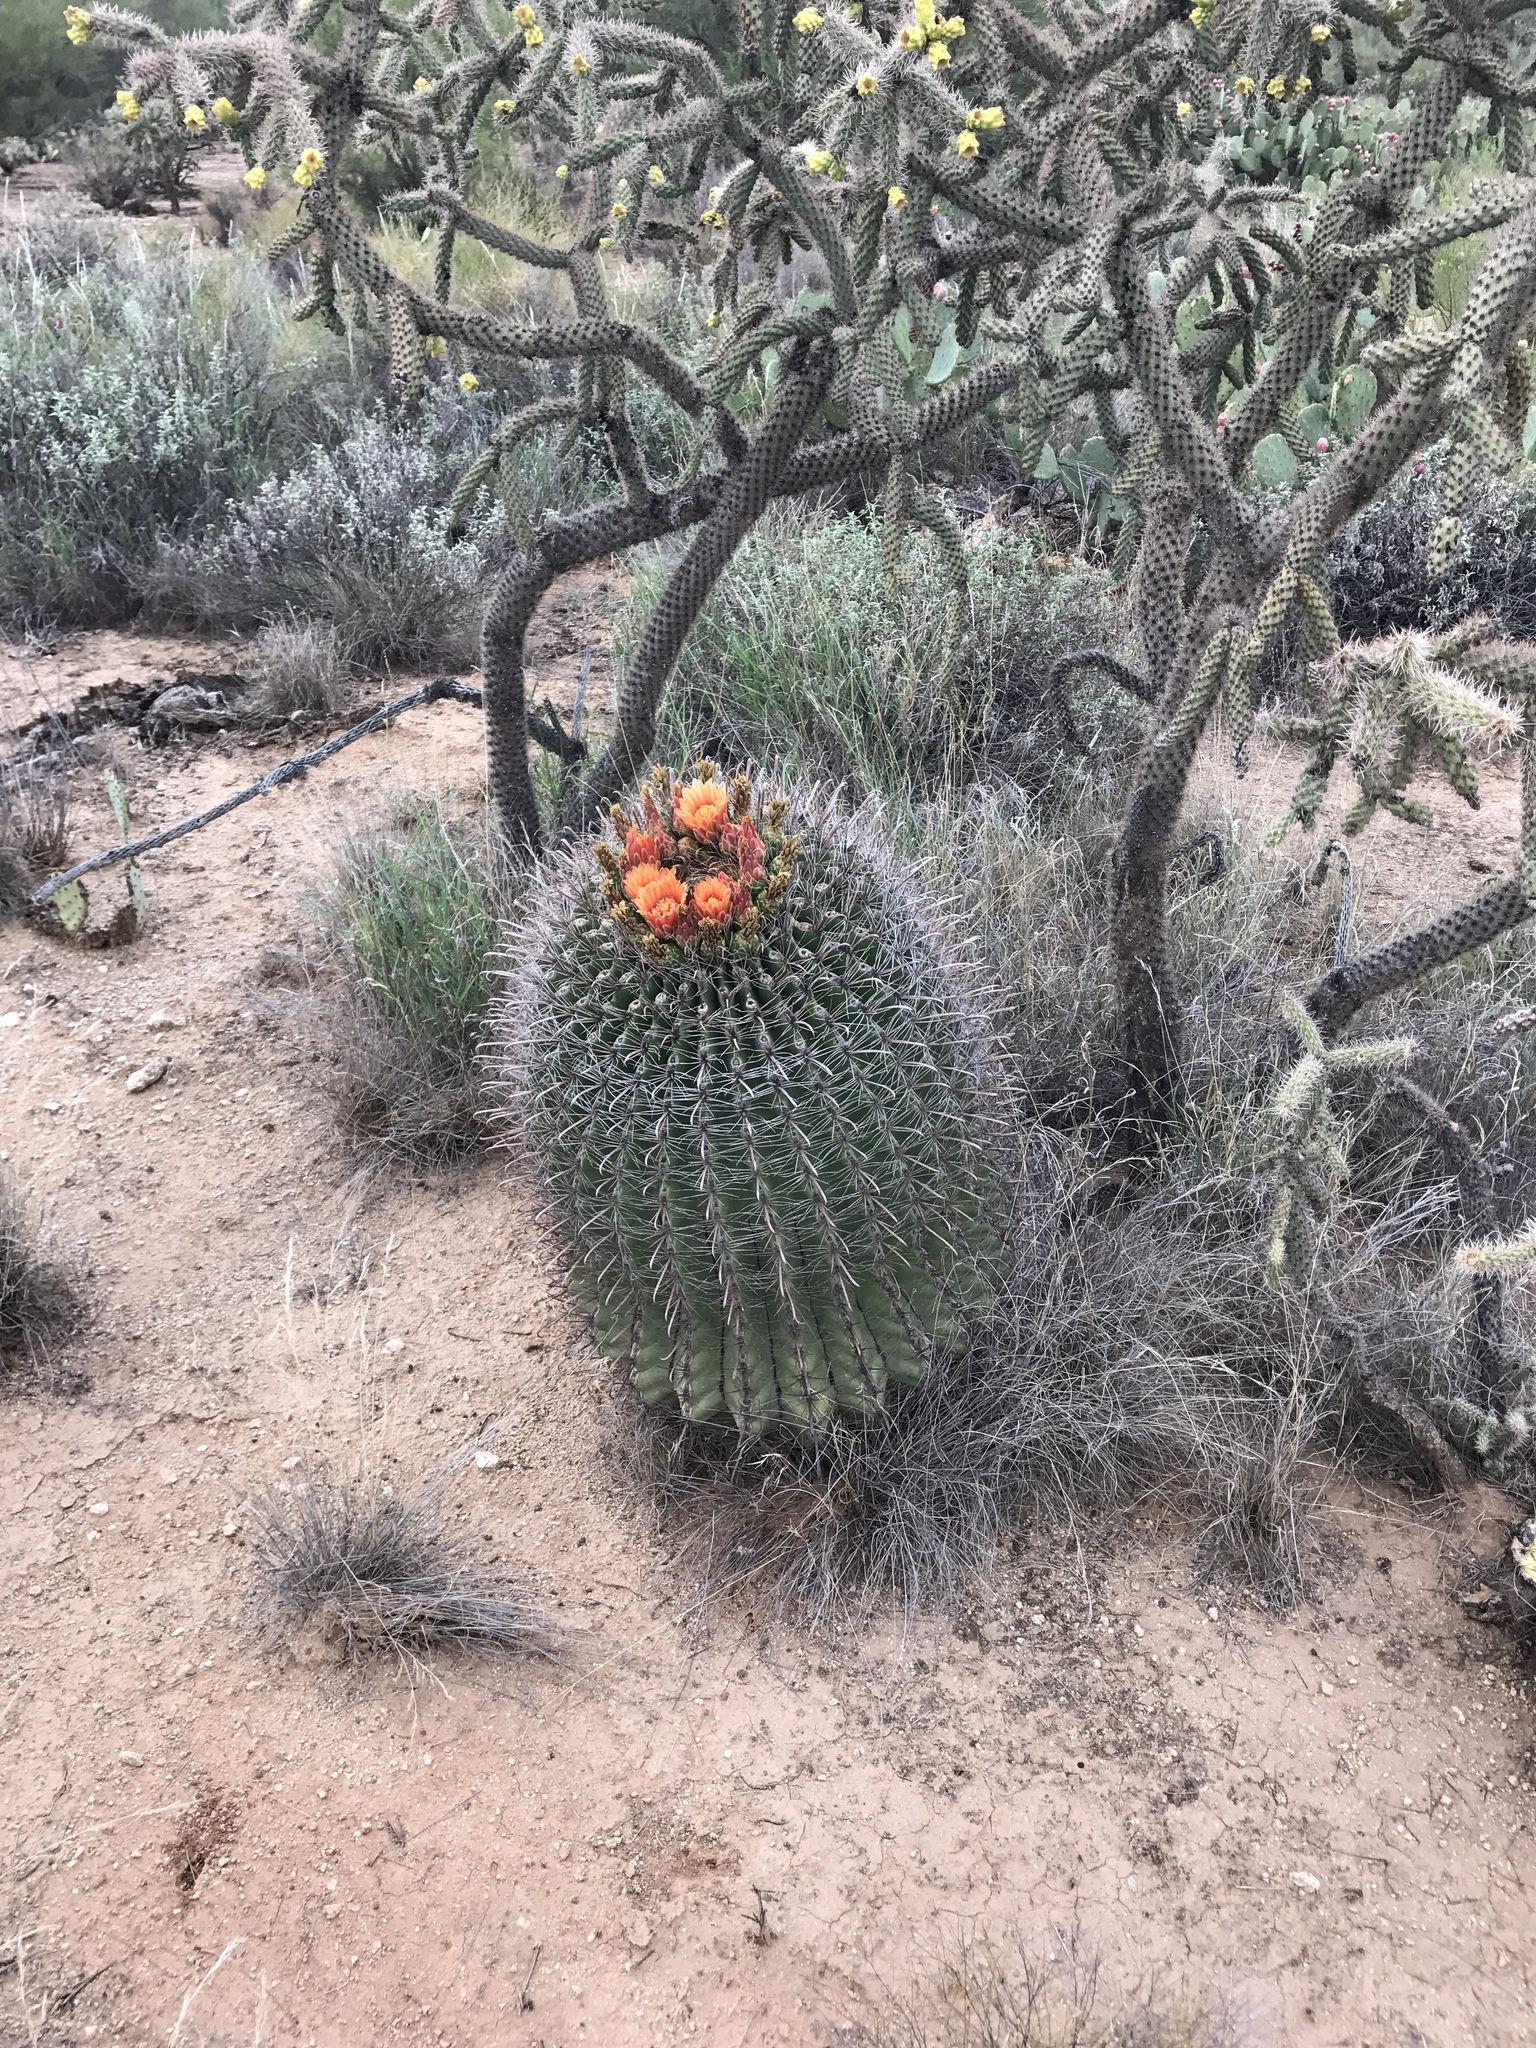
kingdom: Plantae
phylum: Tracheophyta
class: Magnoliopsida
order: Caryophyllales
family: Cactaceae
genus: Ferocactus
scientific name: Ferocactus wislizeni
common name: Candy barrel cactus
